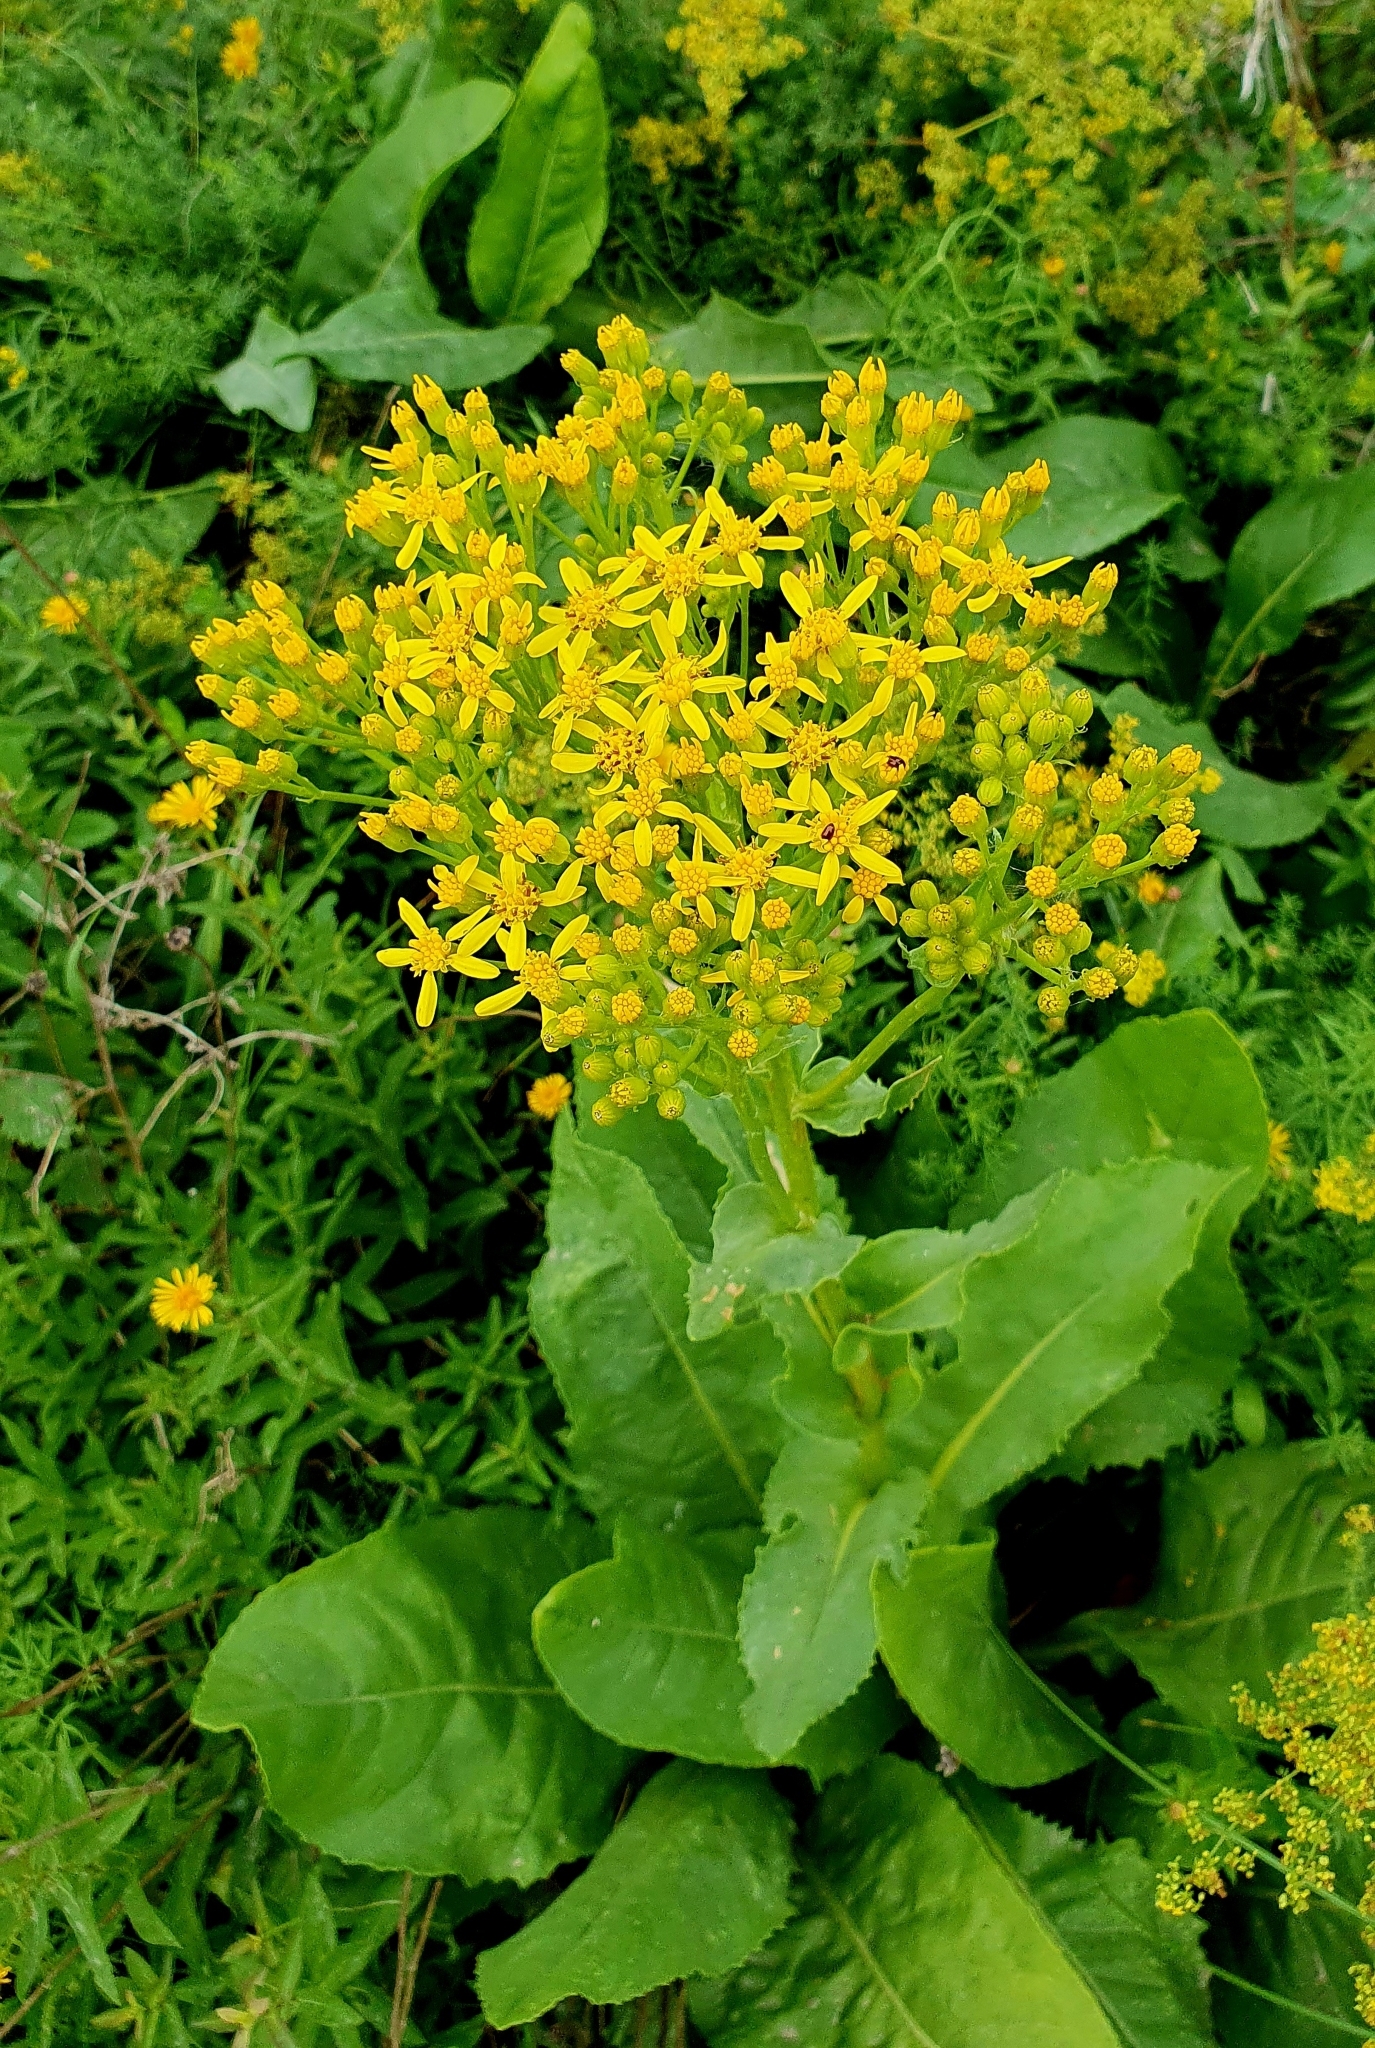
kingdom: Plantae
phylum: Tracheophyta
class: Magnoliopsida
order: Asterales
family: Asteraceae
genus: Senecio
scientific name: Senecio doria
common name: Golden ragwort
